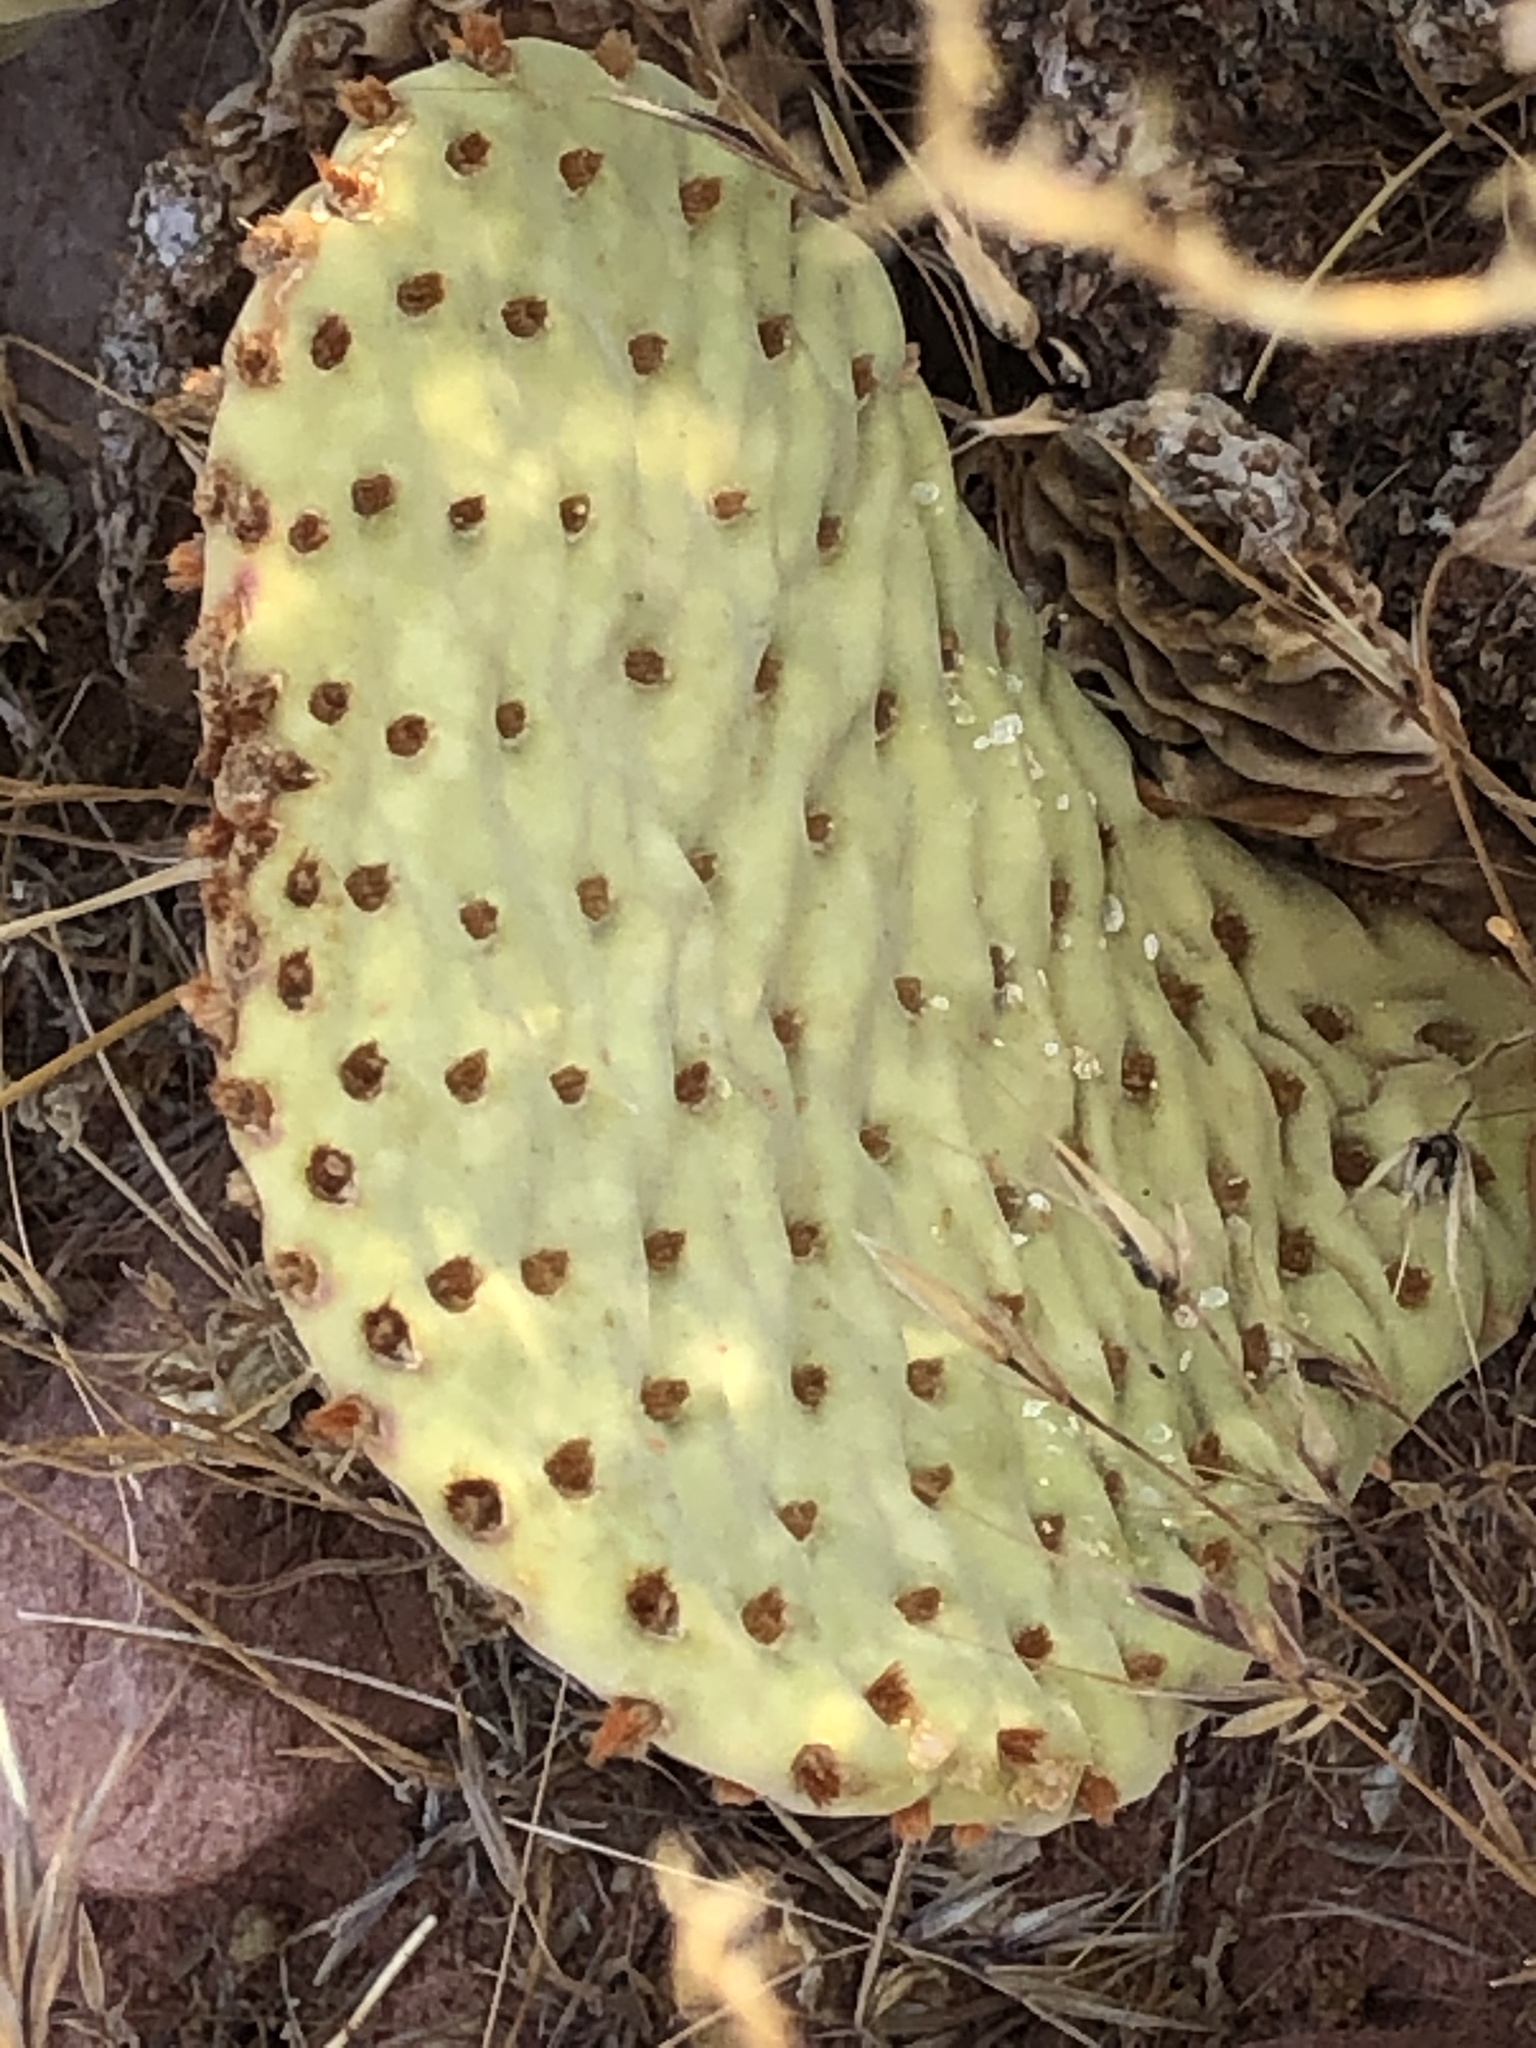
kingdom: Plantae
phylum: Tracheophyta
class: Magnoliopsida
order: Caryophyllales
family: Cactaceae
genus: Opuntia
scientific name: Opuntia basilaris
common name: Beavertail prickly-pear
